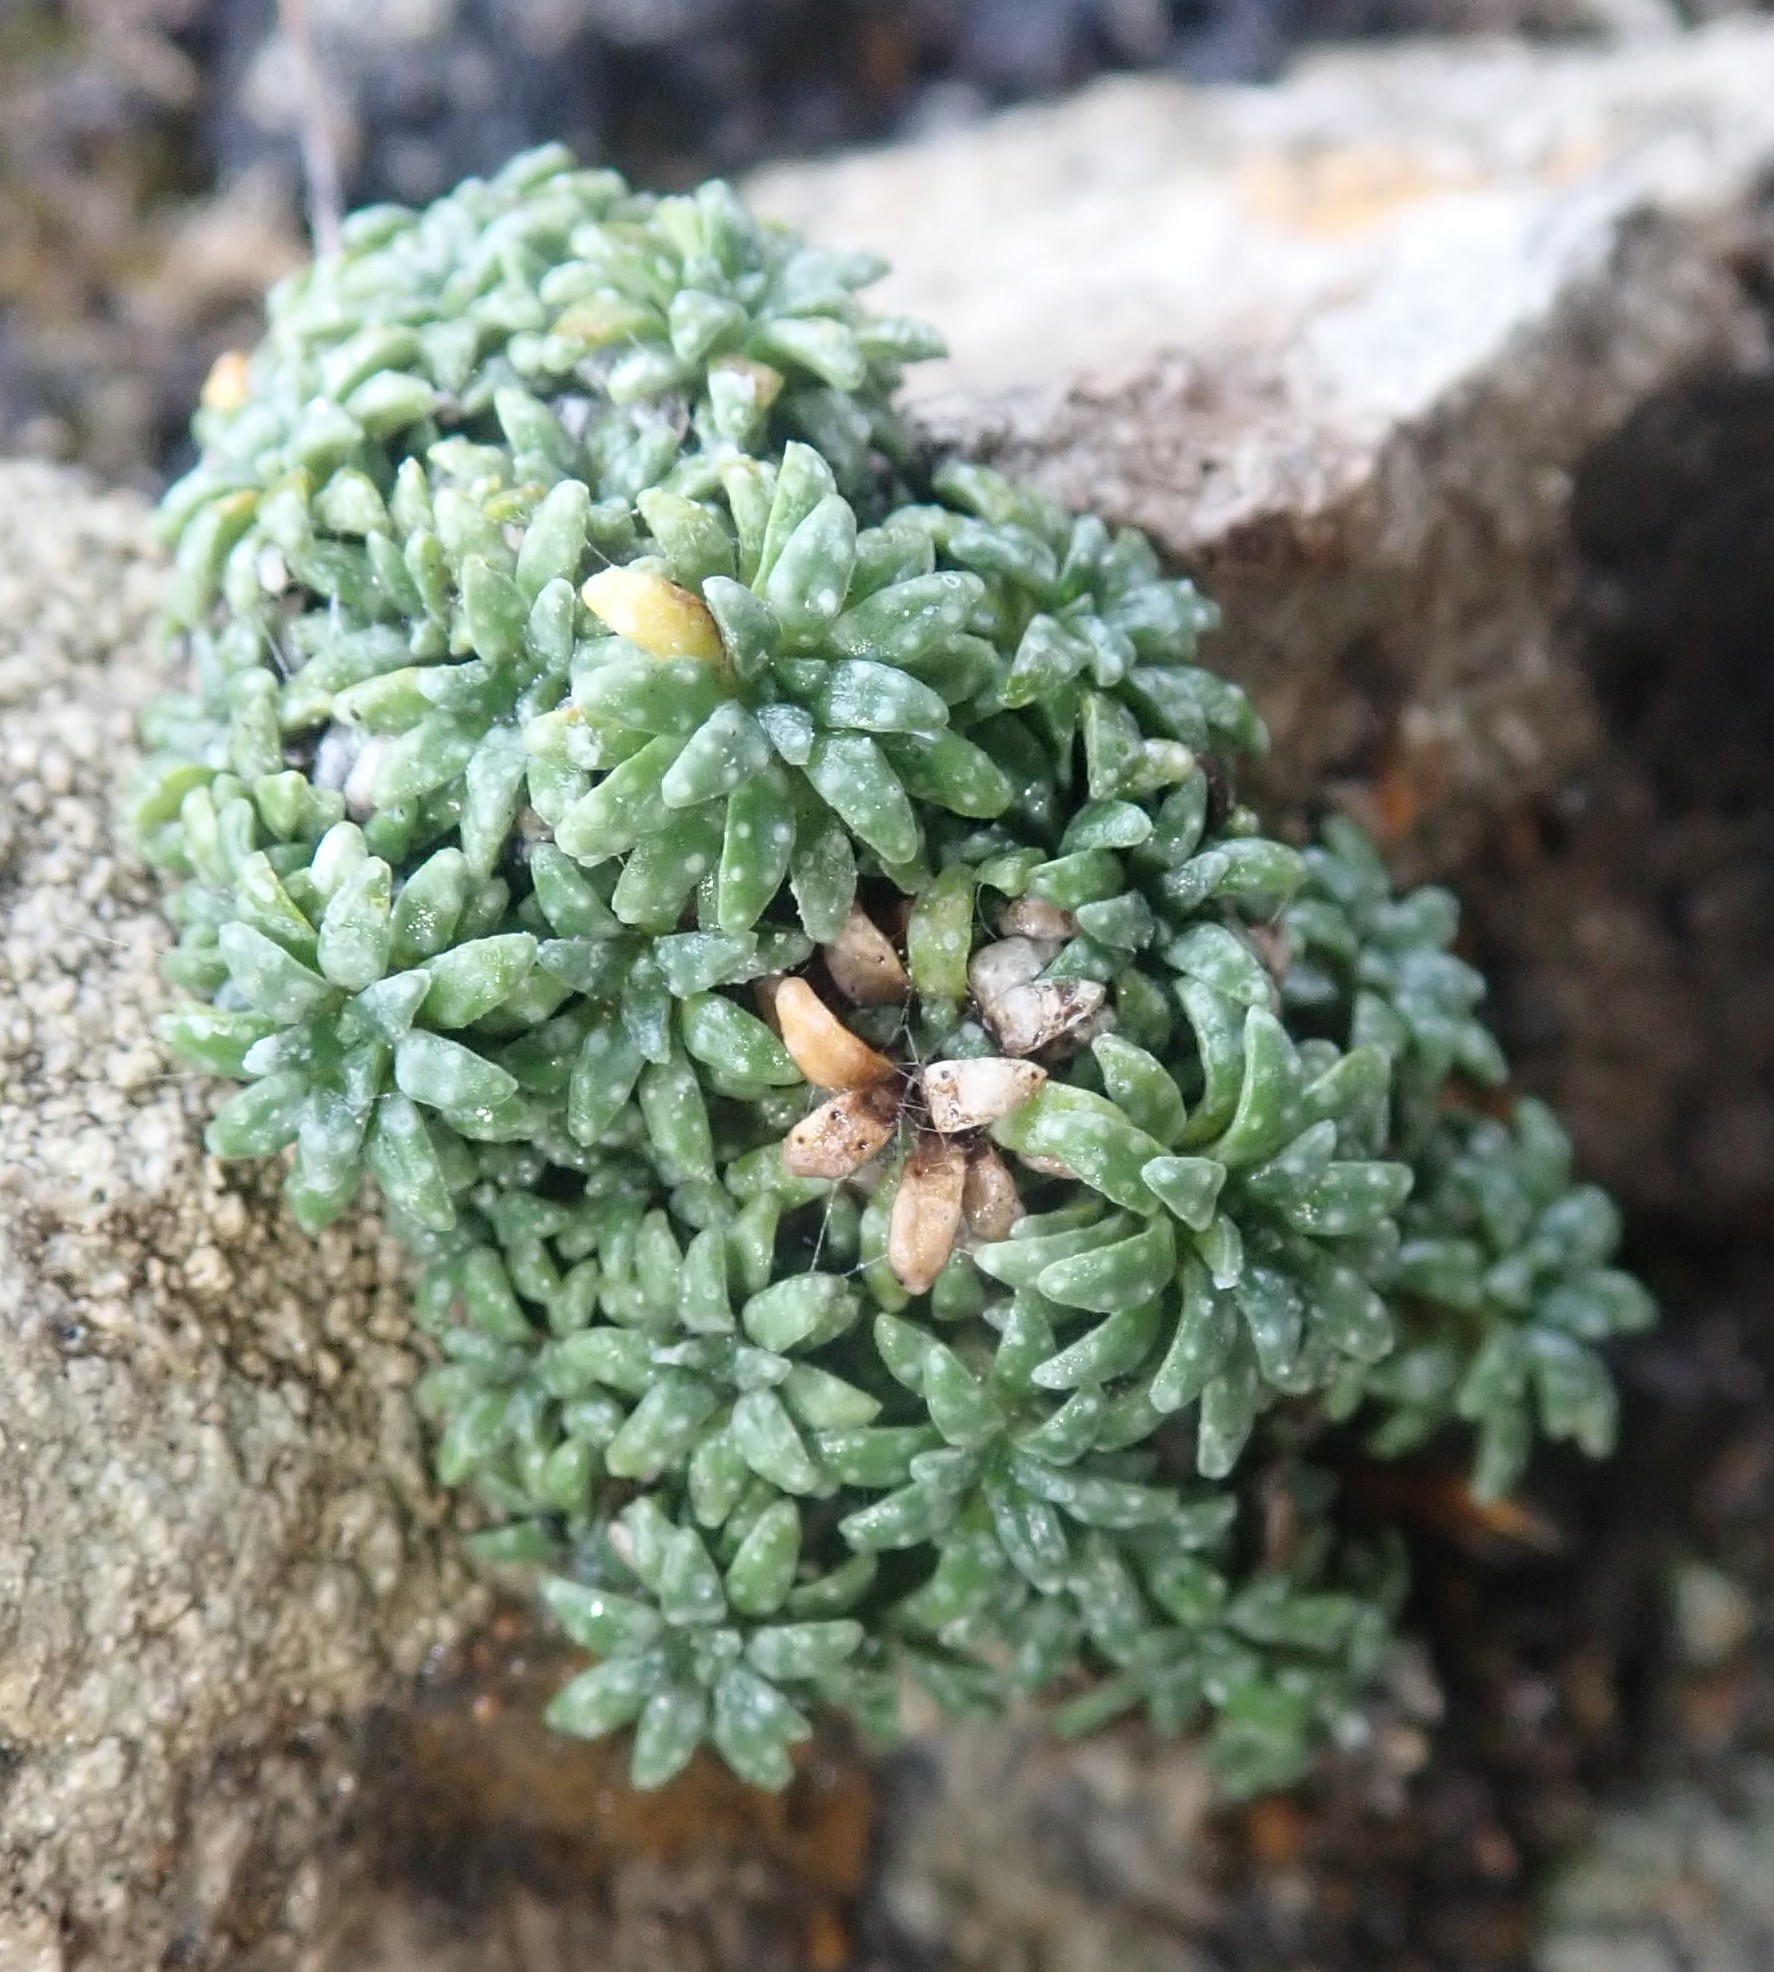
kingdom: Plantae
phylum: Tracheophyta
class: Magnoliopsida
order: Saxifragales
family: Saxifragaceae
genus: Saxifraga
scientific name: Saxifraga caesia
